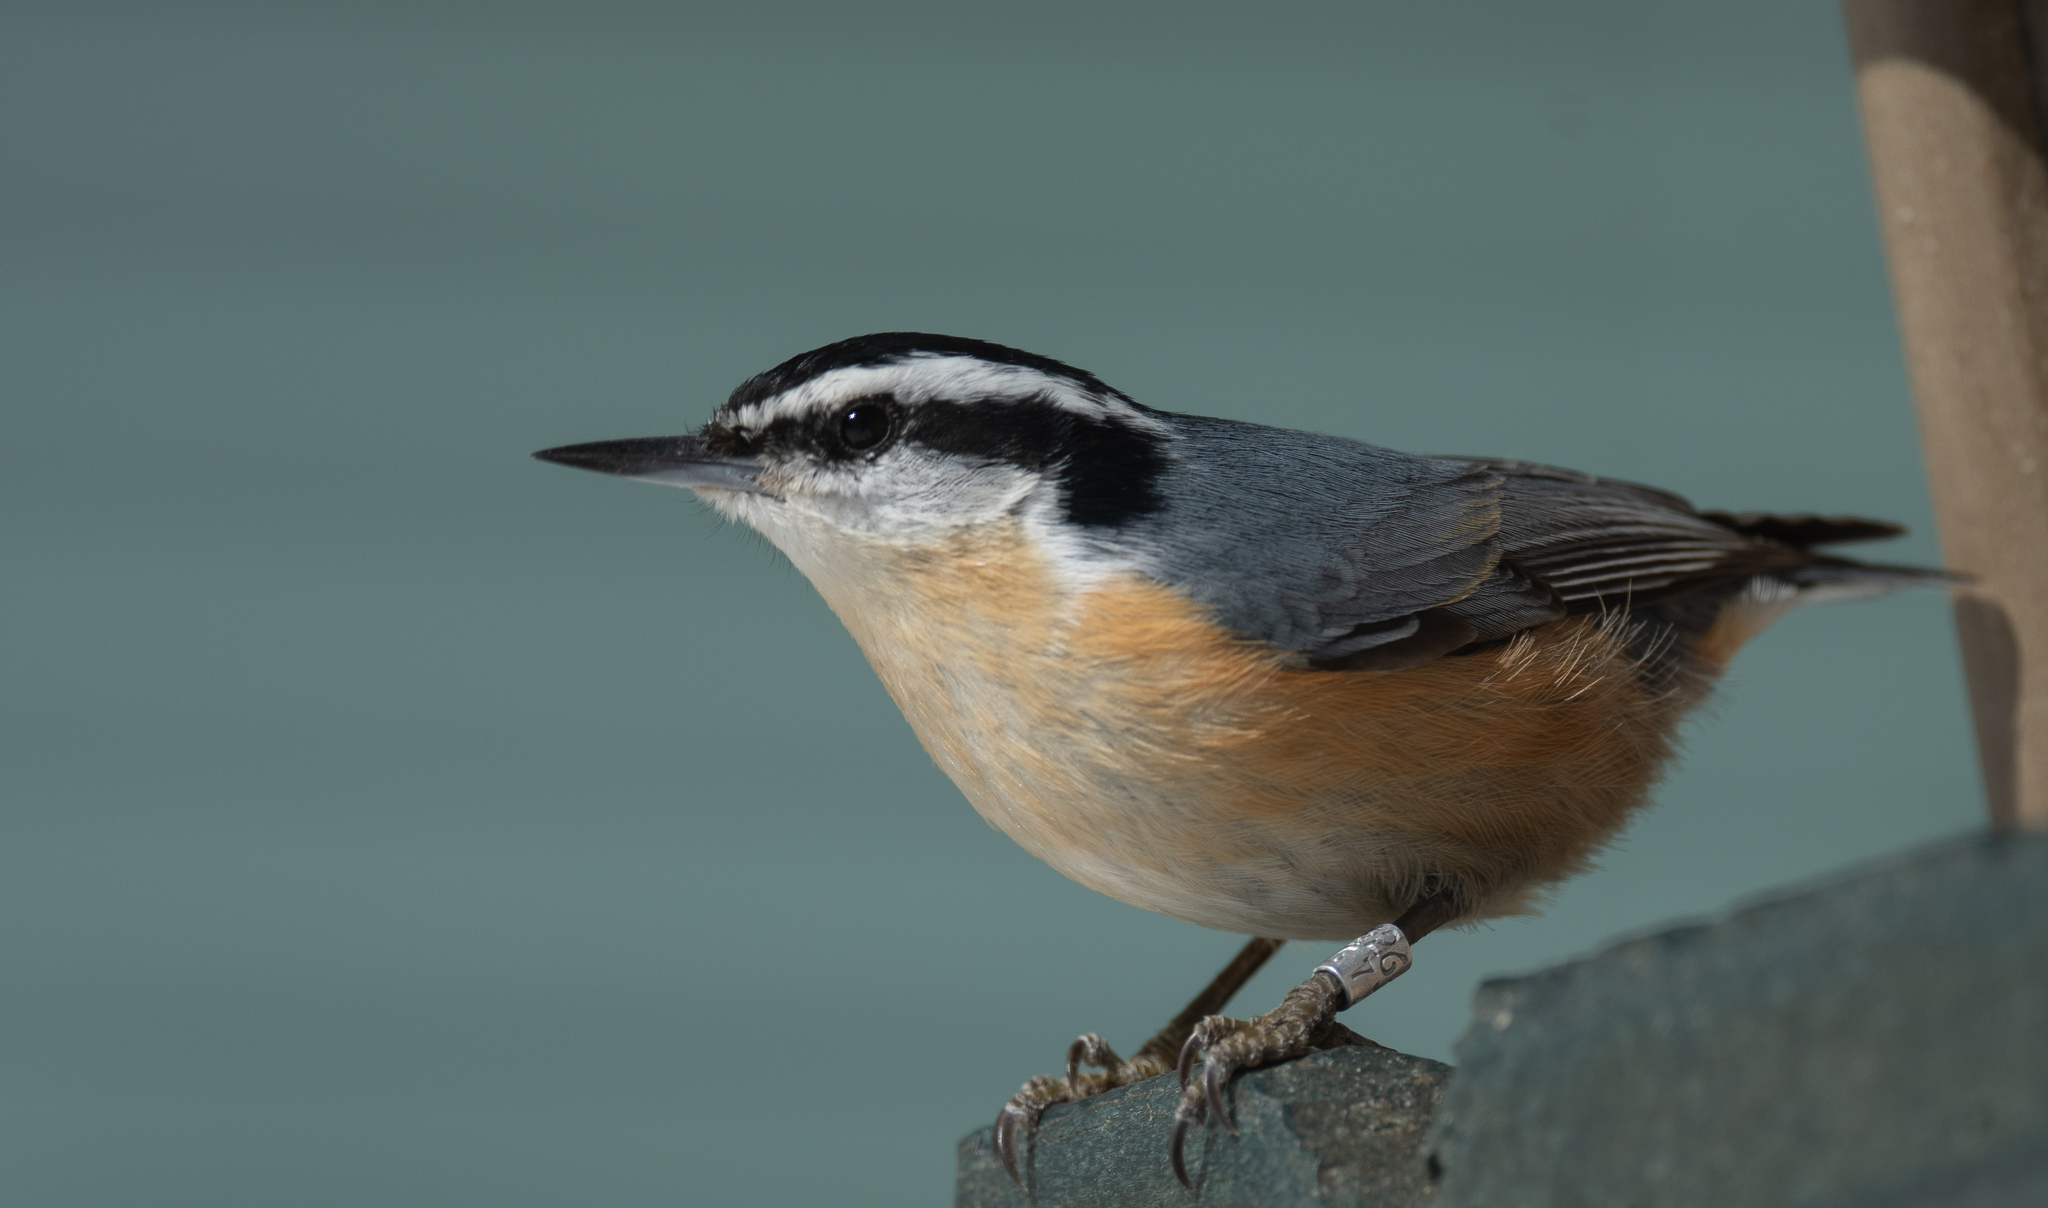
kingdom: Animalia
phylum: Chordata
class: Aves
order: Passeriformes
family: Sittidae
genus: Sitta
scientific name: Sitta canadensis
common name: Red-breasted nuthatch
